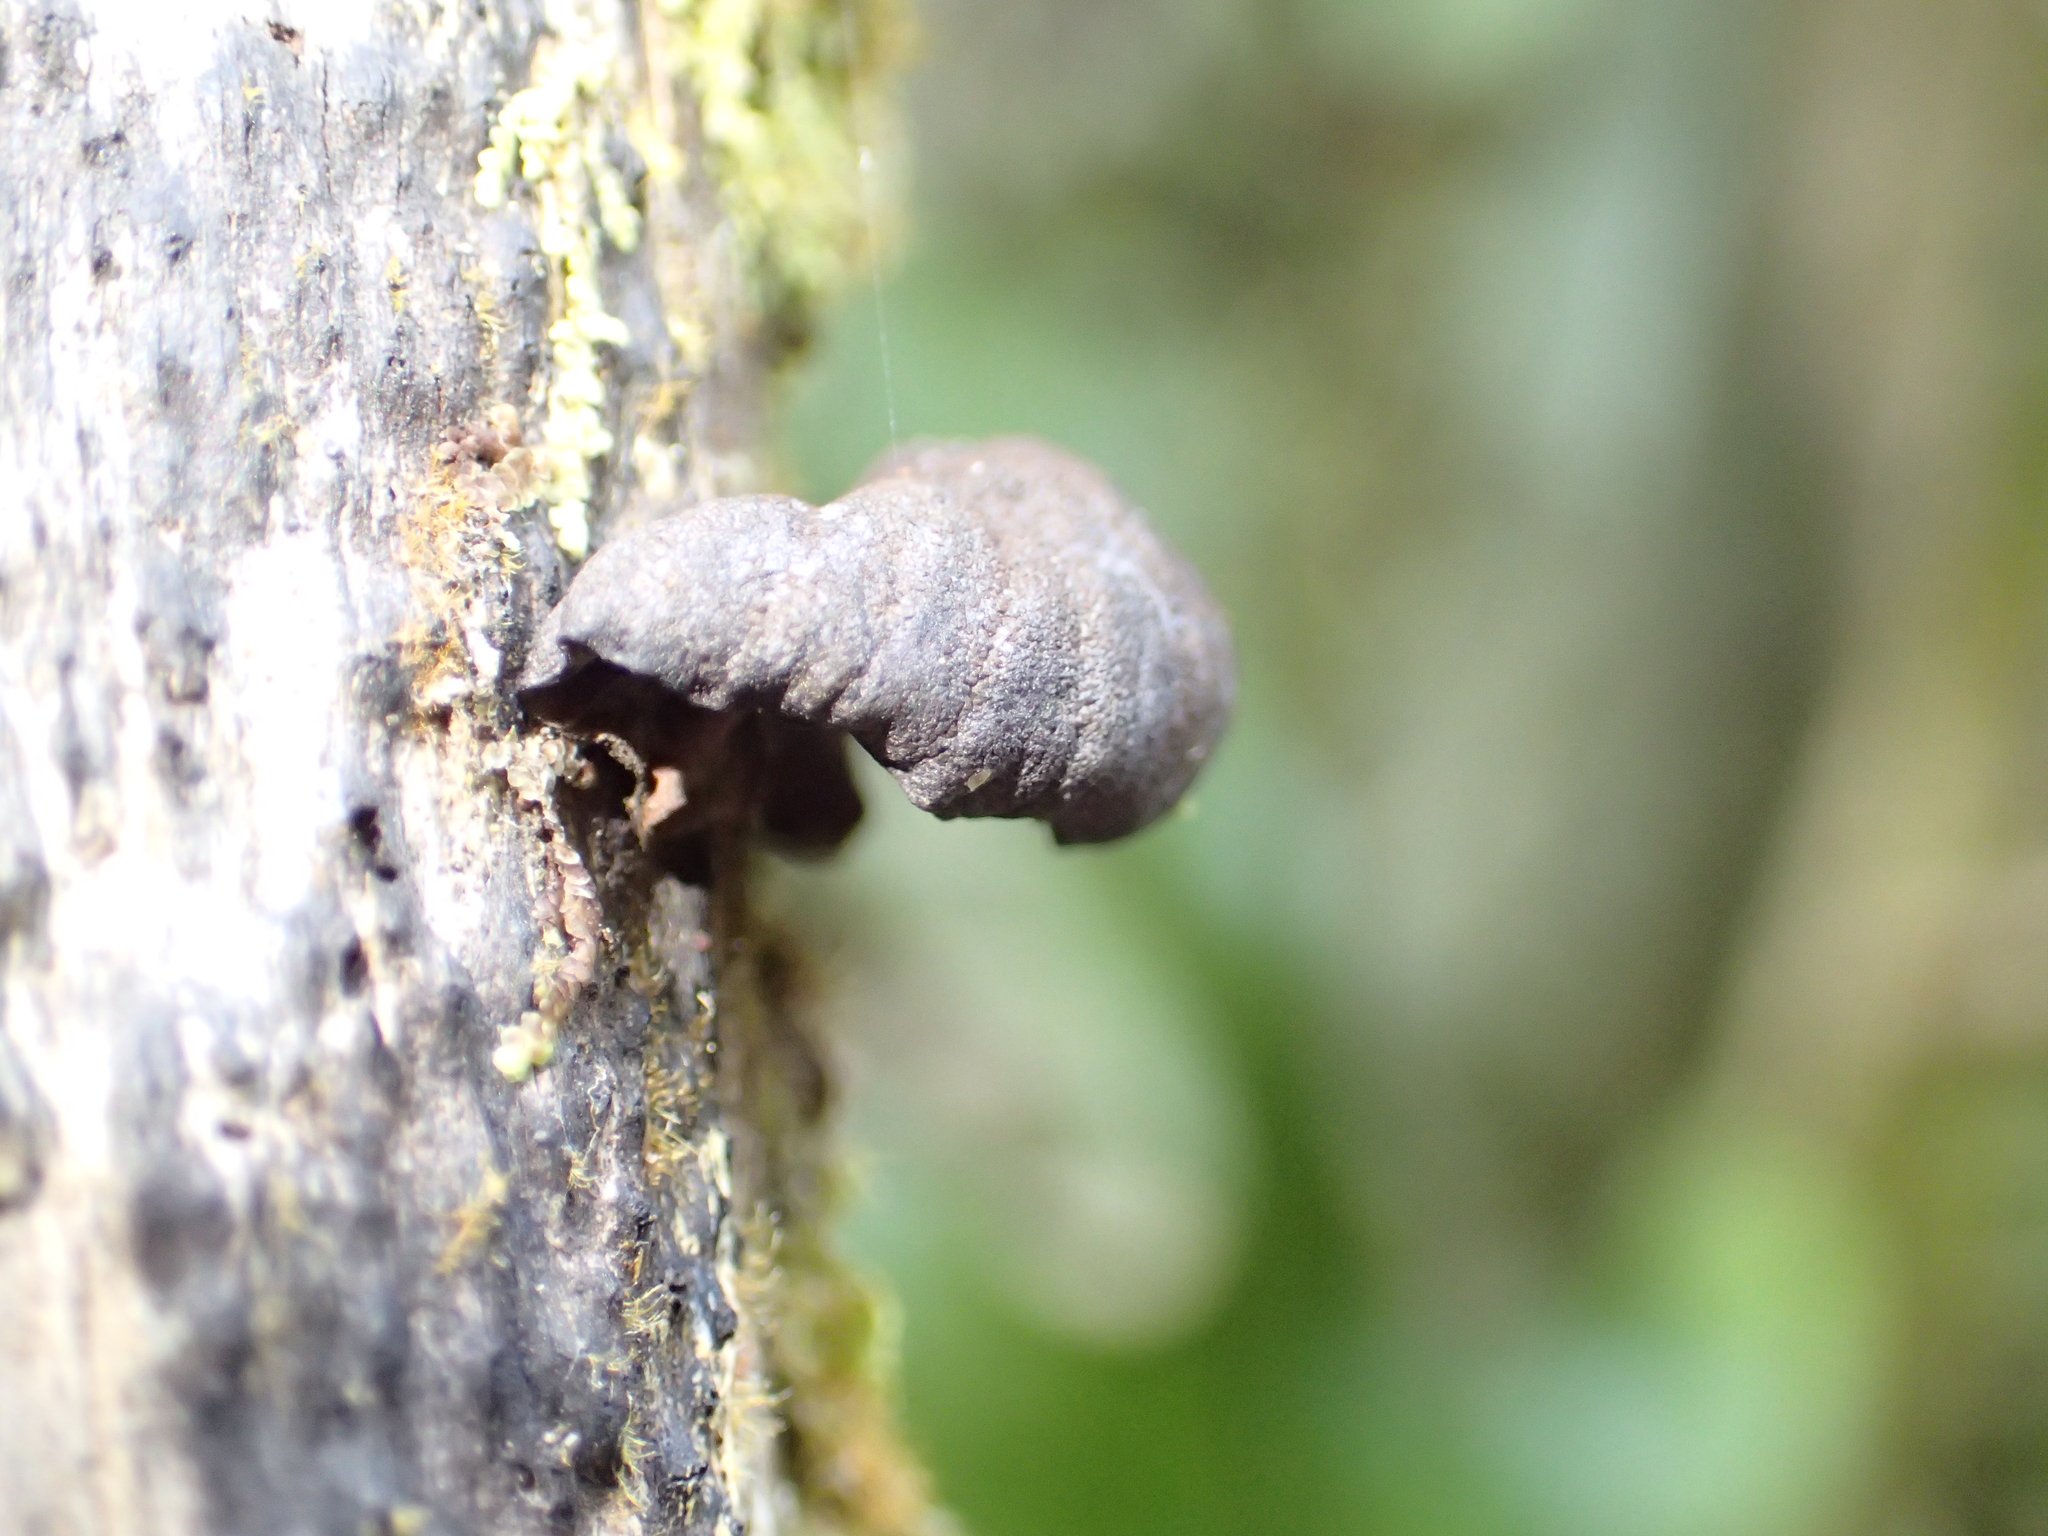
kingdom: Fungi
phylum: Basidiomycota
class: Agaricomycetes
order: Agaricales
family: Omphalotaceae
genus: Anthracophyllum
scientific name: Anthracophyllum archeri
